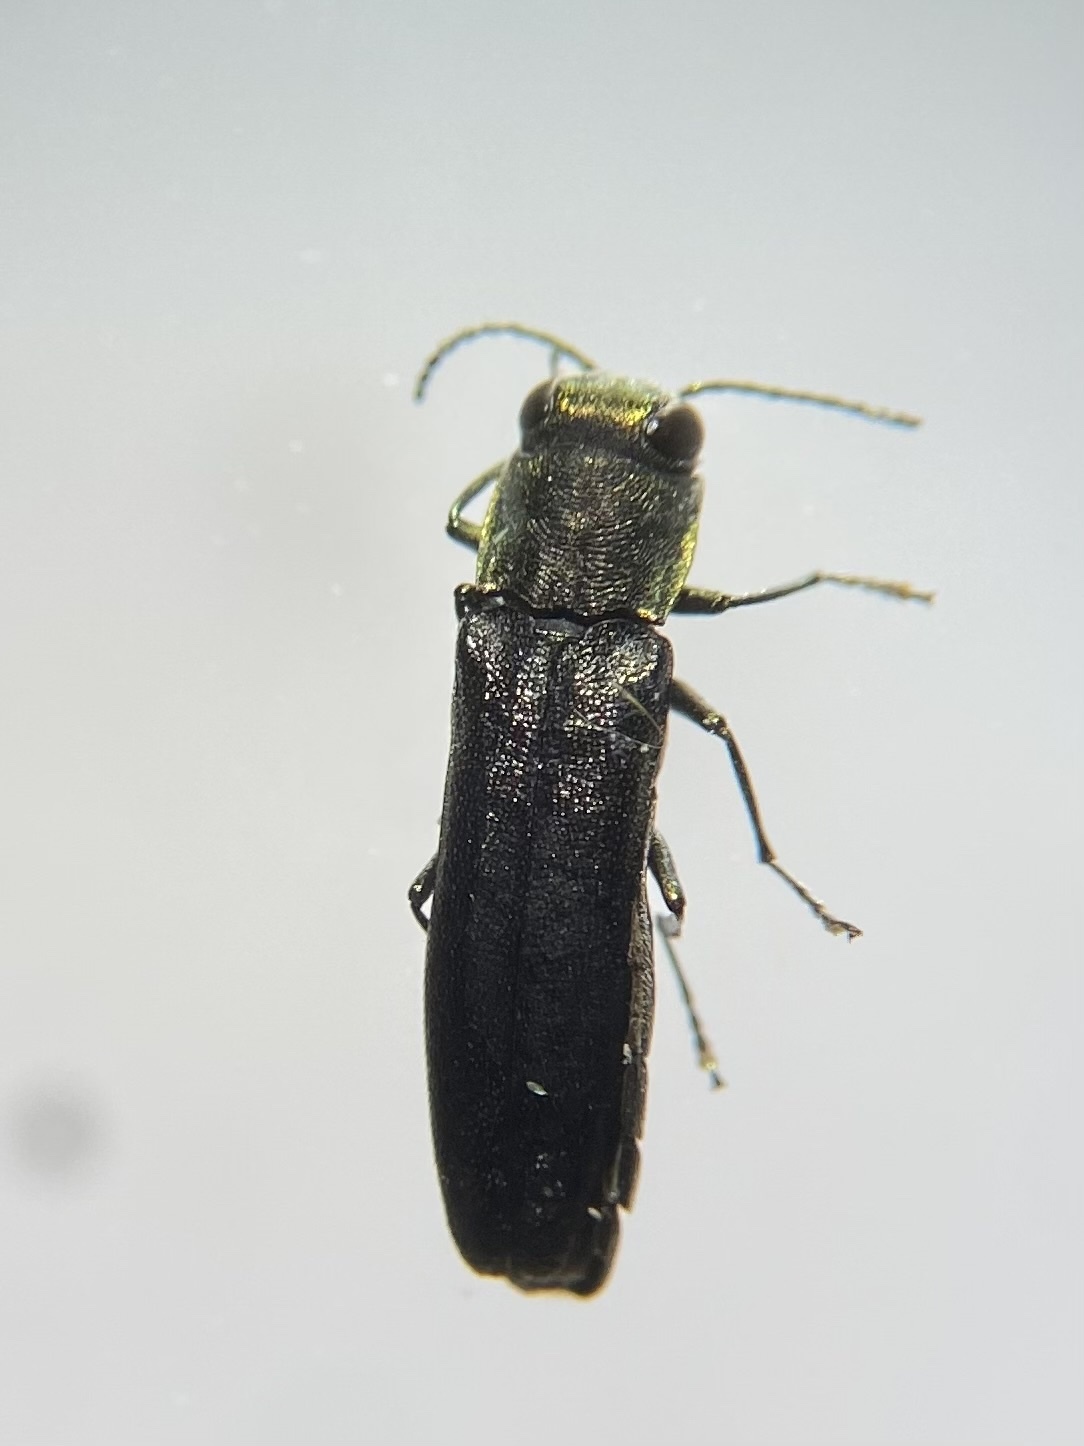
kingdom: Animalia
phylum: Arthropoda
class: Insecta
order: Coleoptera
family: Buprestidae
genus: Agrilus
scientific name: Agrilus defectus
